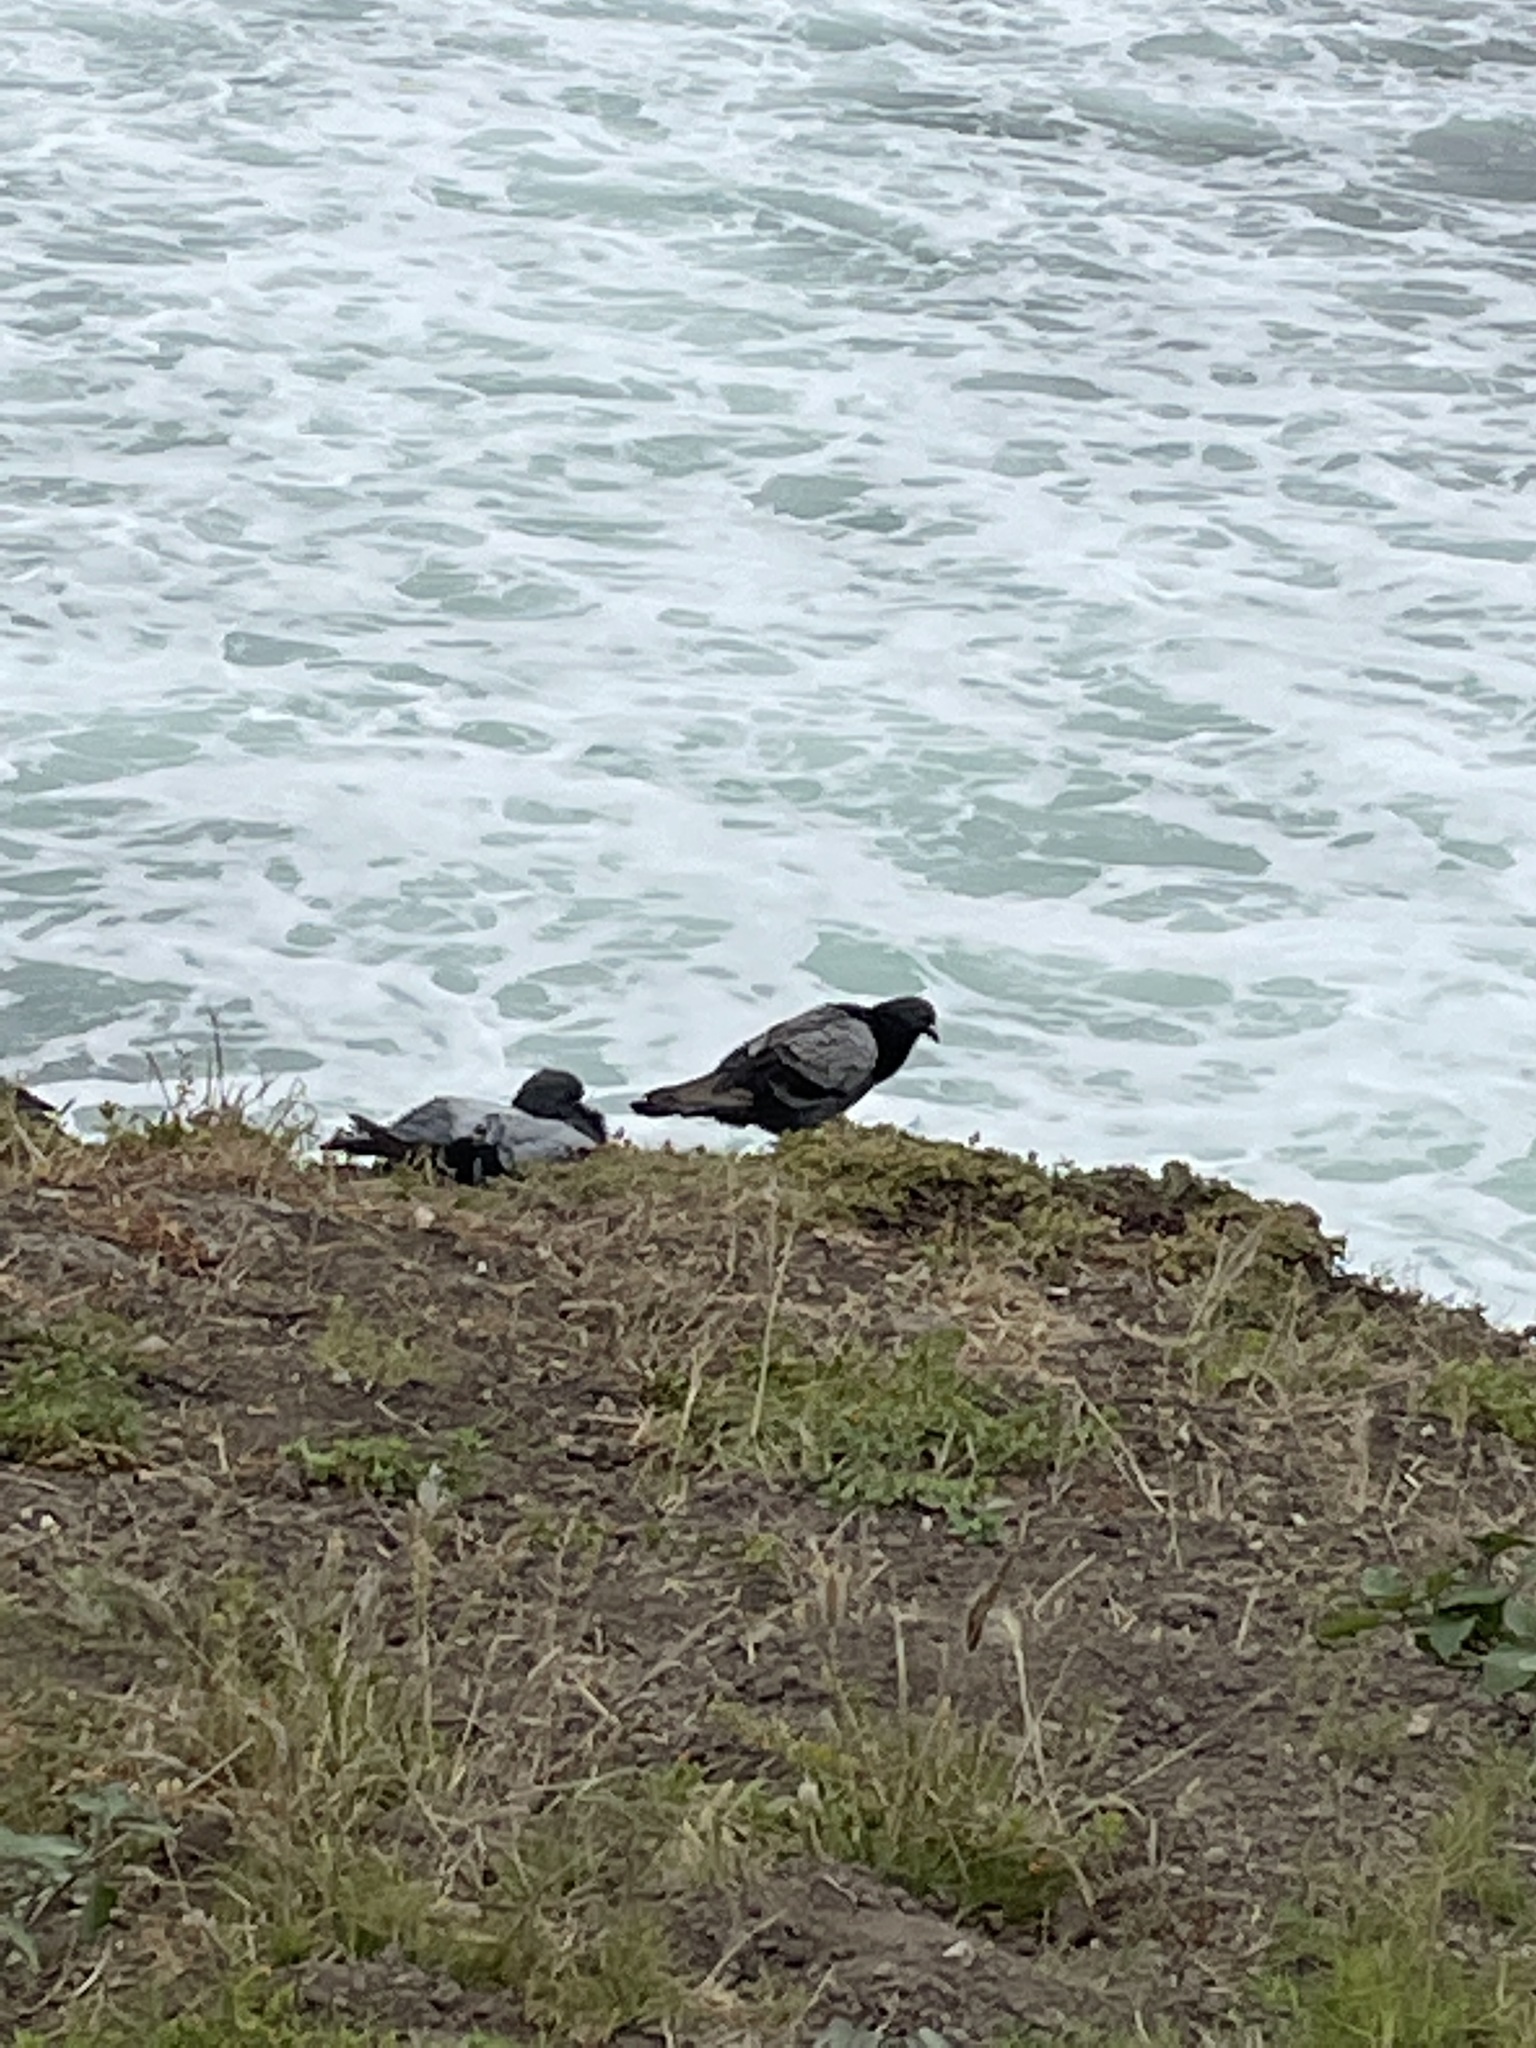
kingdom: Animalia
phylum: Chordata
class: Aves
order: Columbiformes
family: Columbidae
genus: Columba
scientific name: Columba livia
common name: Rock pigeon
